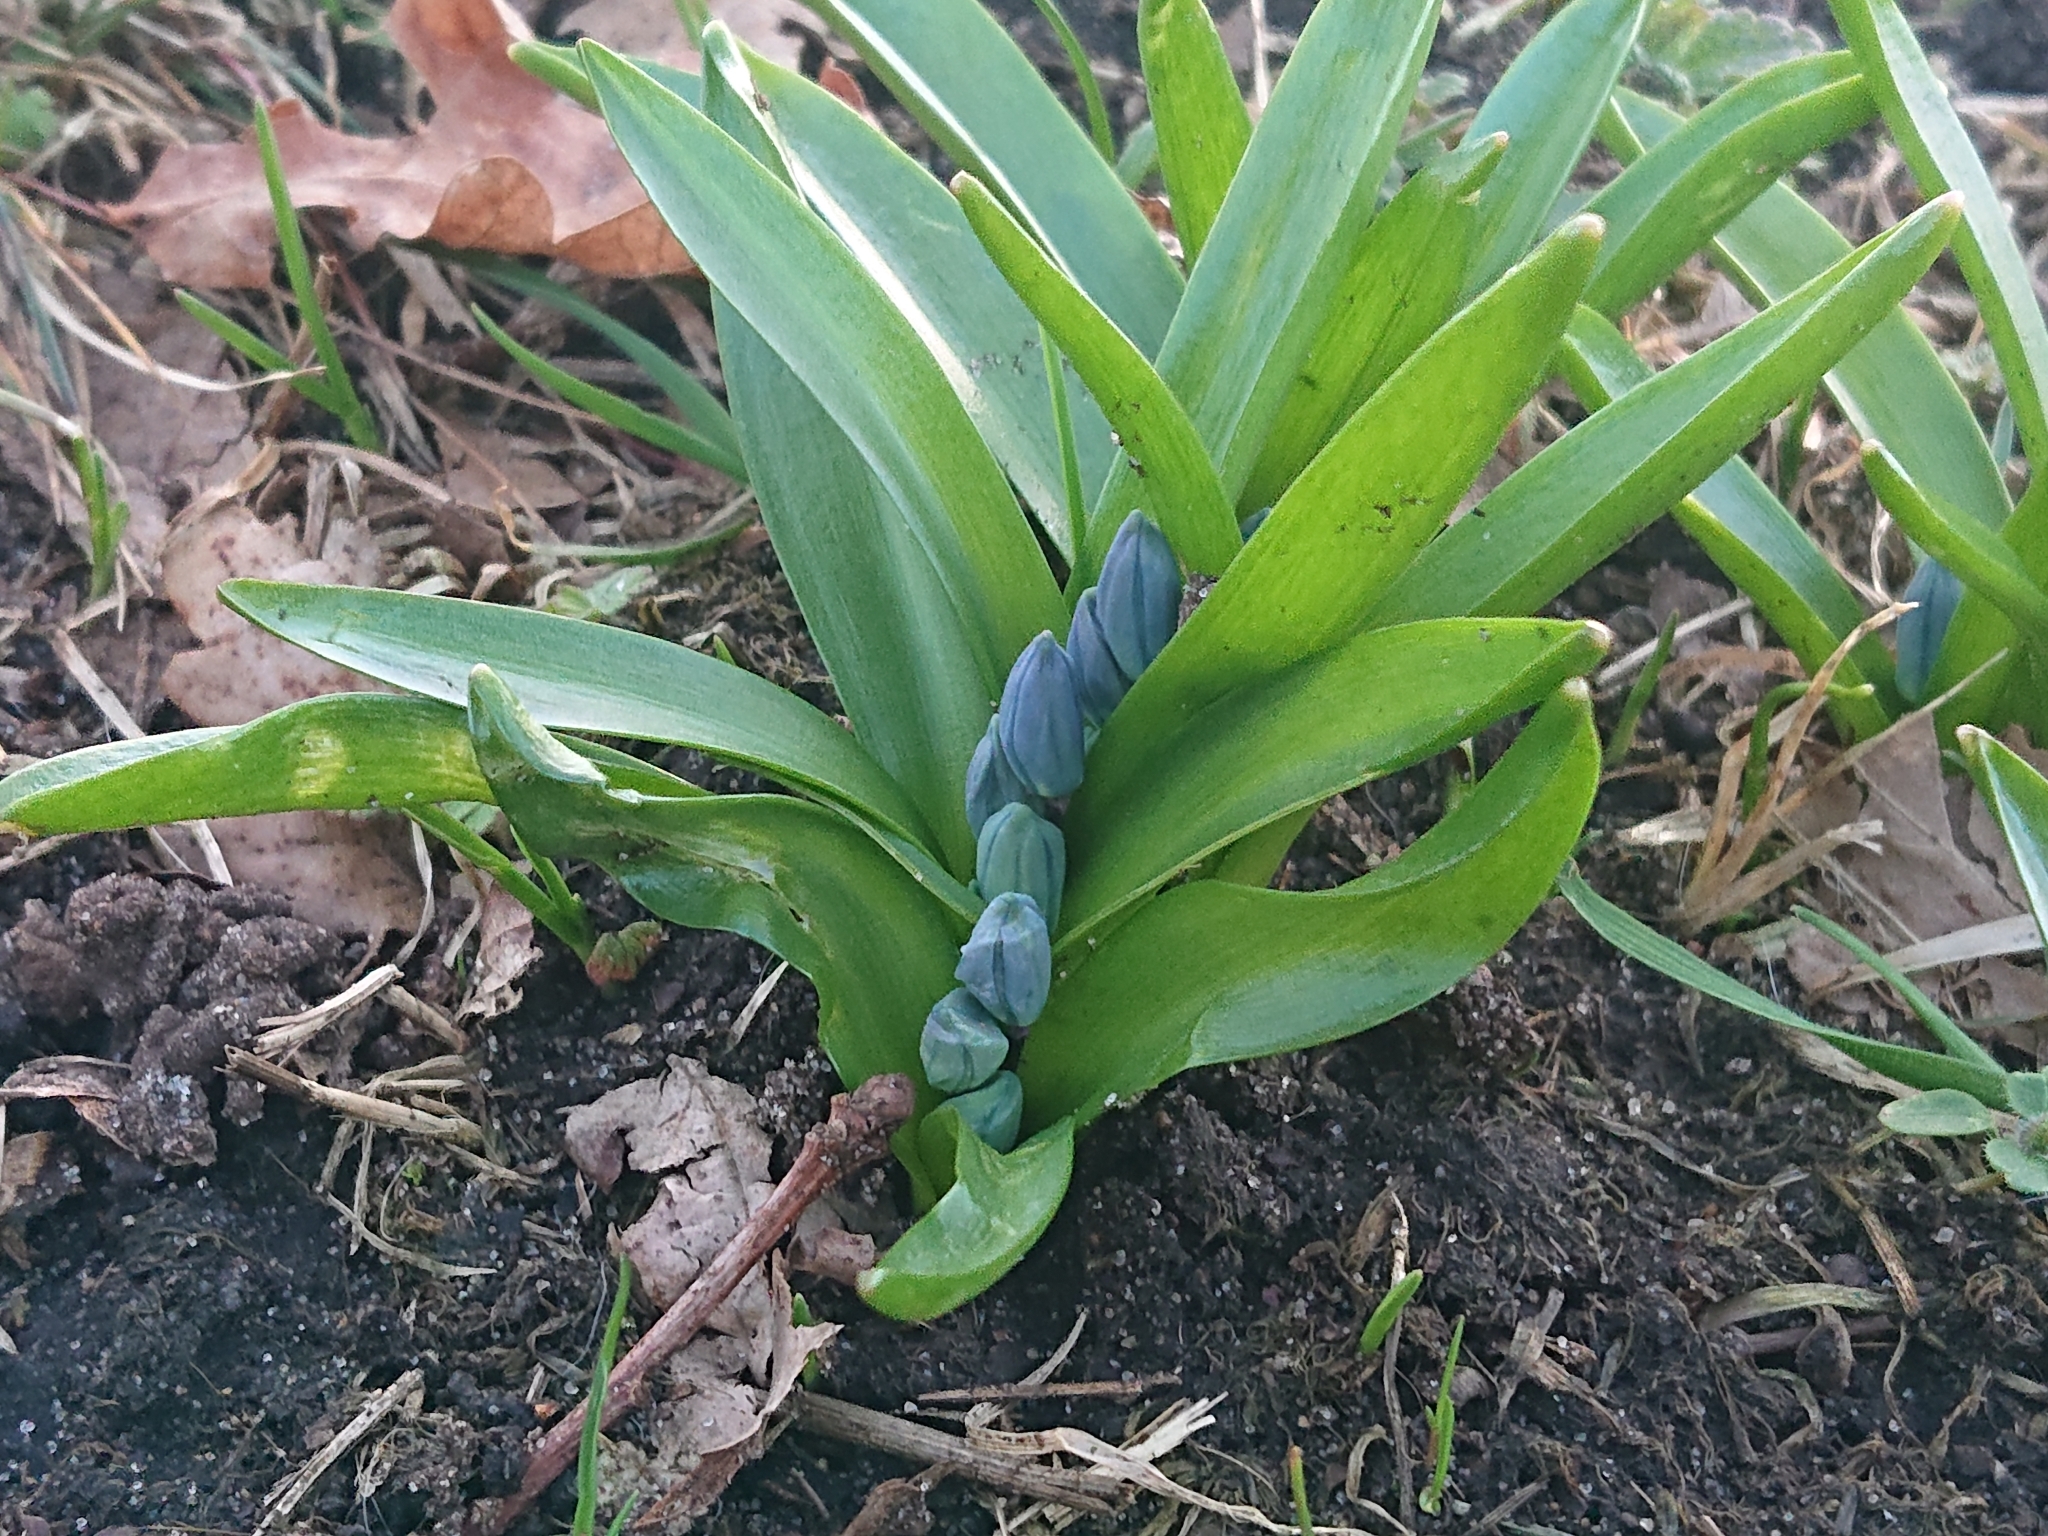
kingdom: Plantae
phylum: Tracheophyta
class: Liliopsida
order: Asparagales
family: Asparagaceae
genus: Scilla
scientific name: Scilla siberica
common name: Siberian squill
